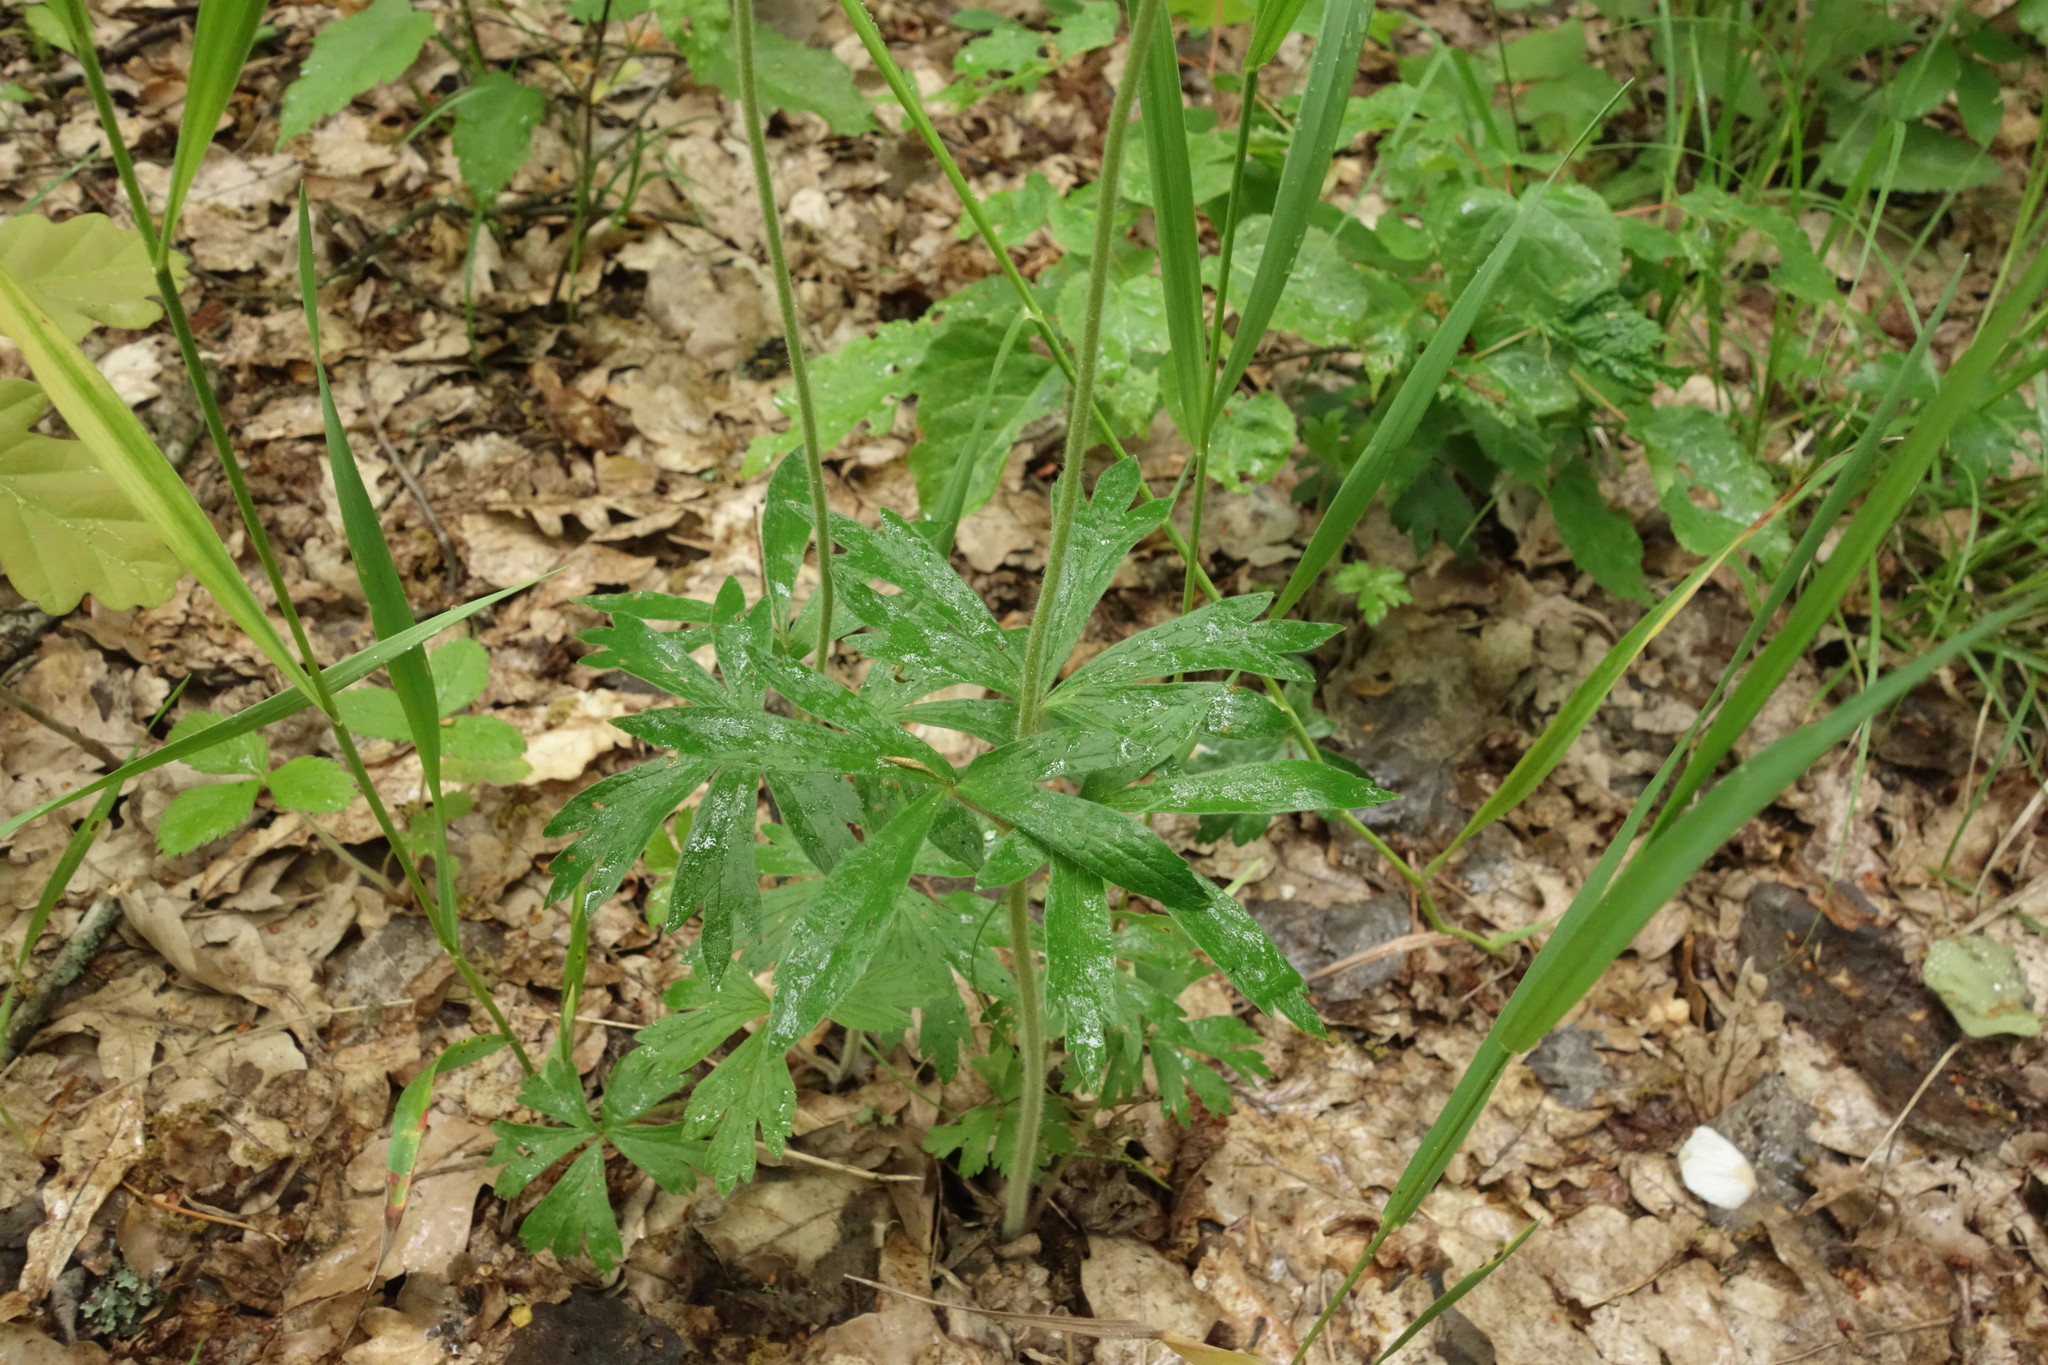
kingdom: Plantae
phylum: Tracheophyta
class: Magnoliopsida
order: Ranunculales
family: Ranunculaceae
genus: Anemone
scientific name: Anemone sylvestris
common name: Snowdrop anemone
